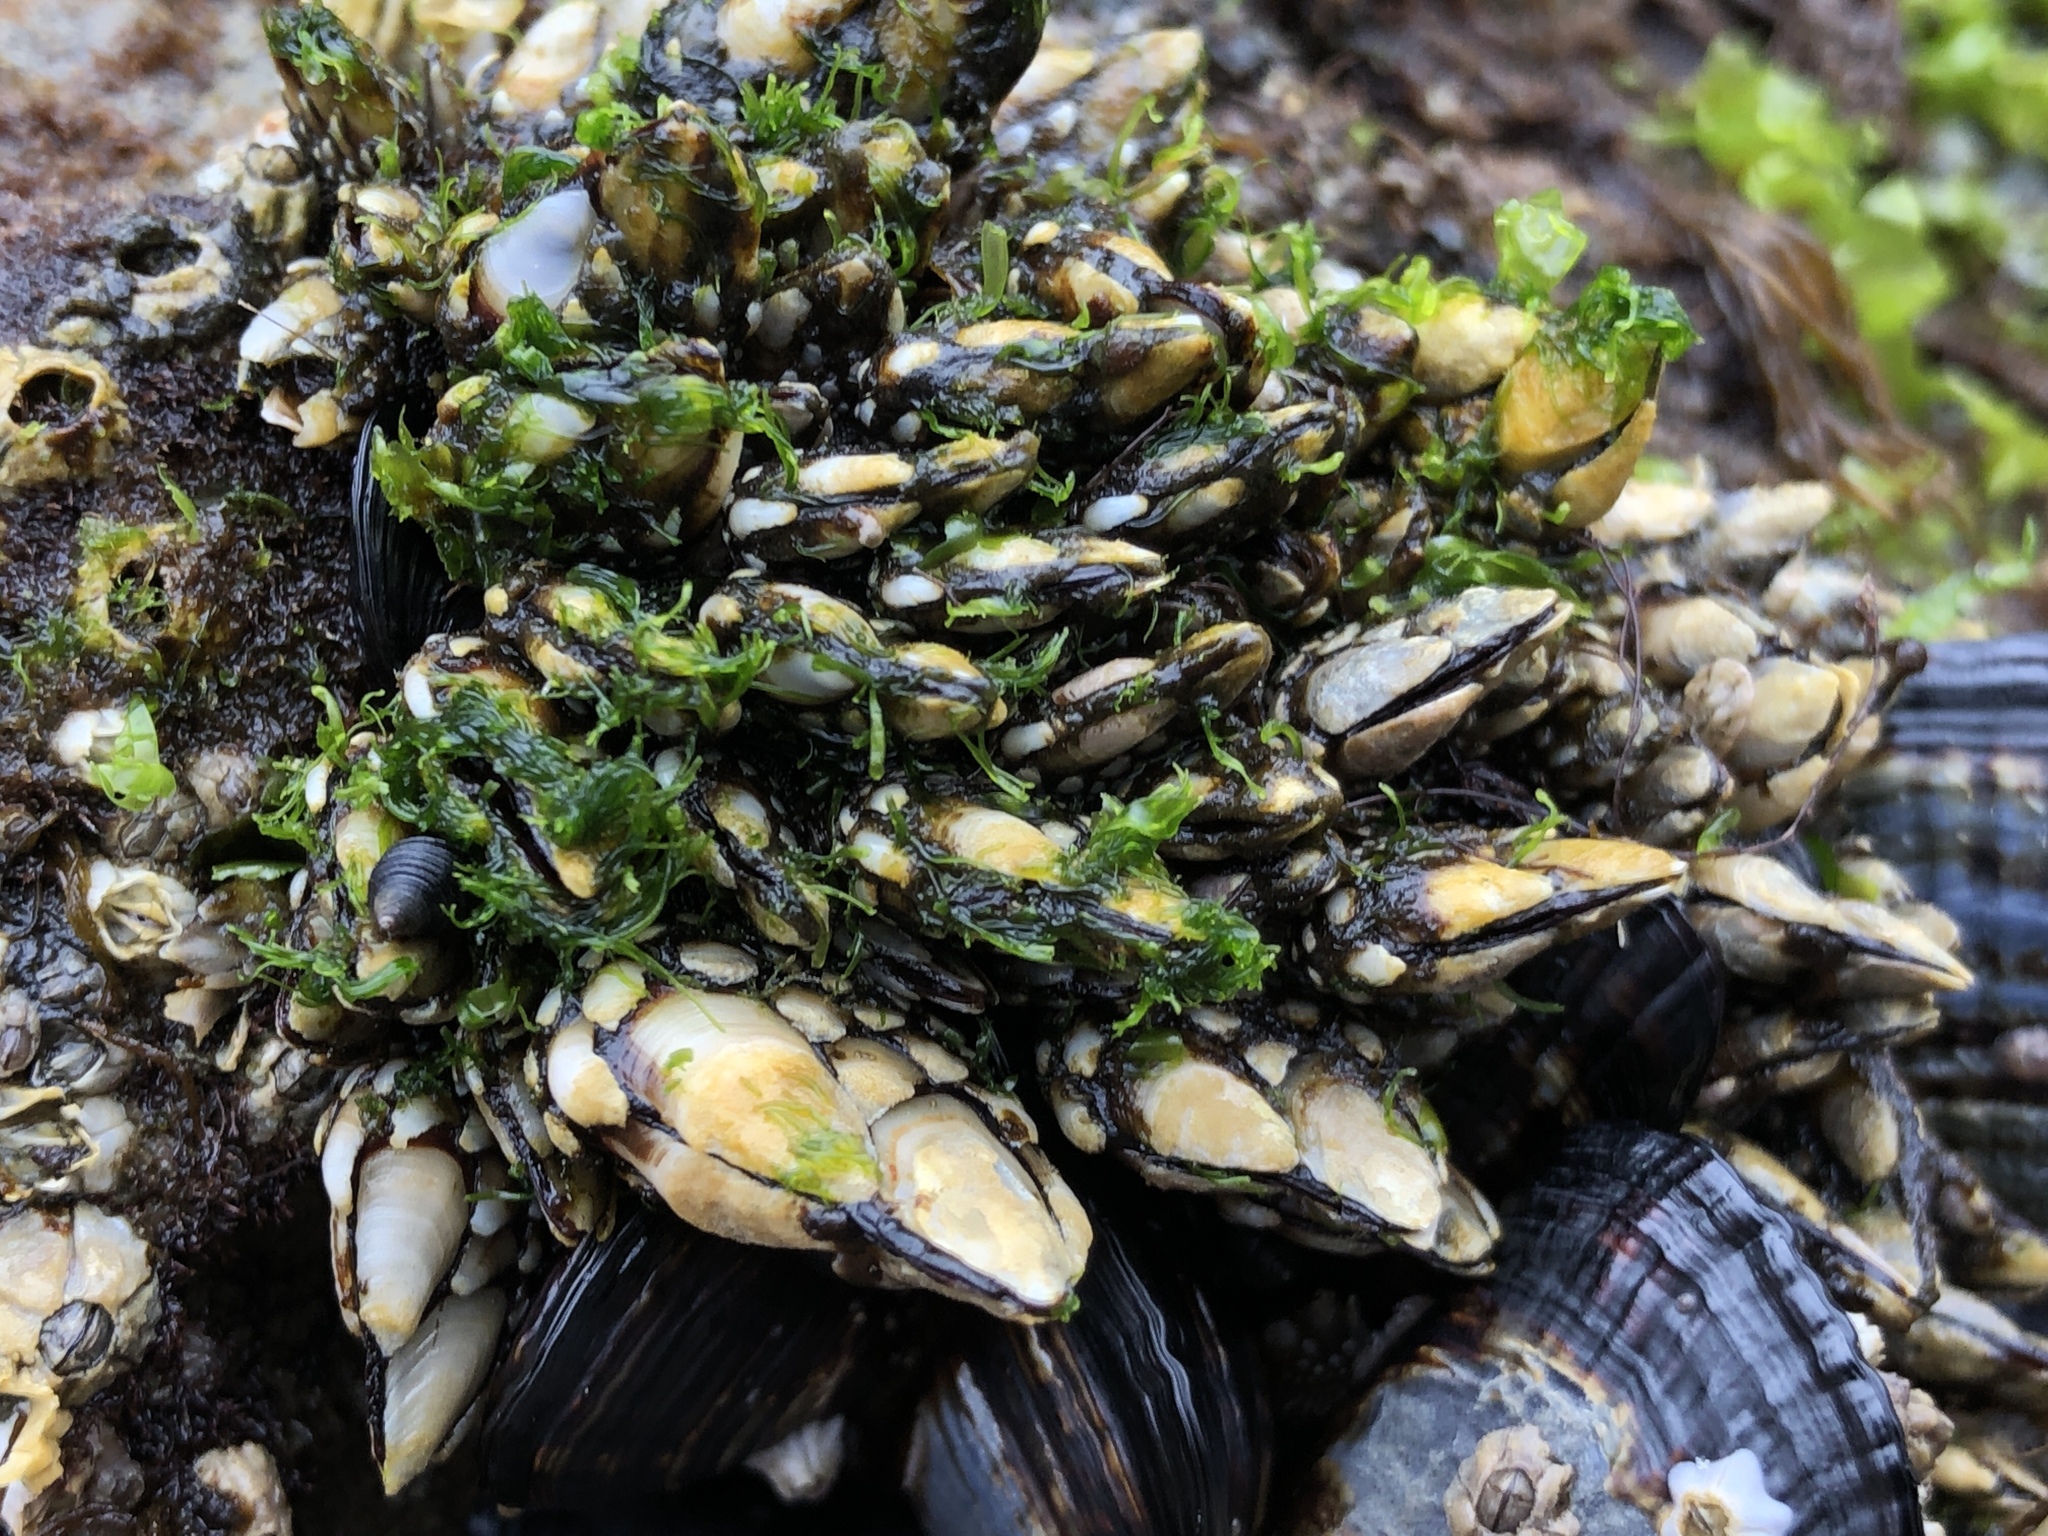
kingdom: Animalia
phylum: Arthropoda
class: Maxillopoda
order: Pedunculata
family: Pollicipedidae
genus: Pollicipes
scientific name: Pollicipes polymerus
